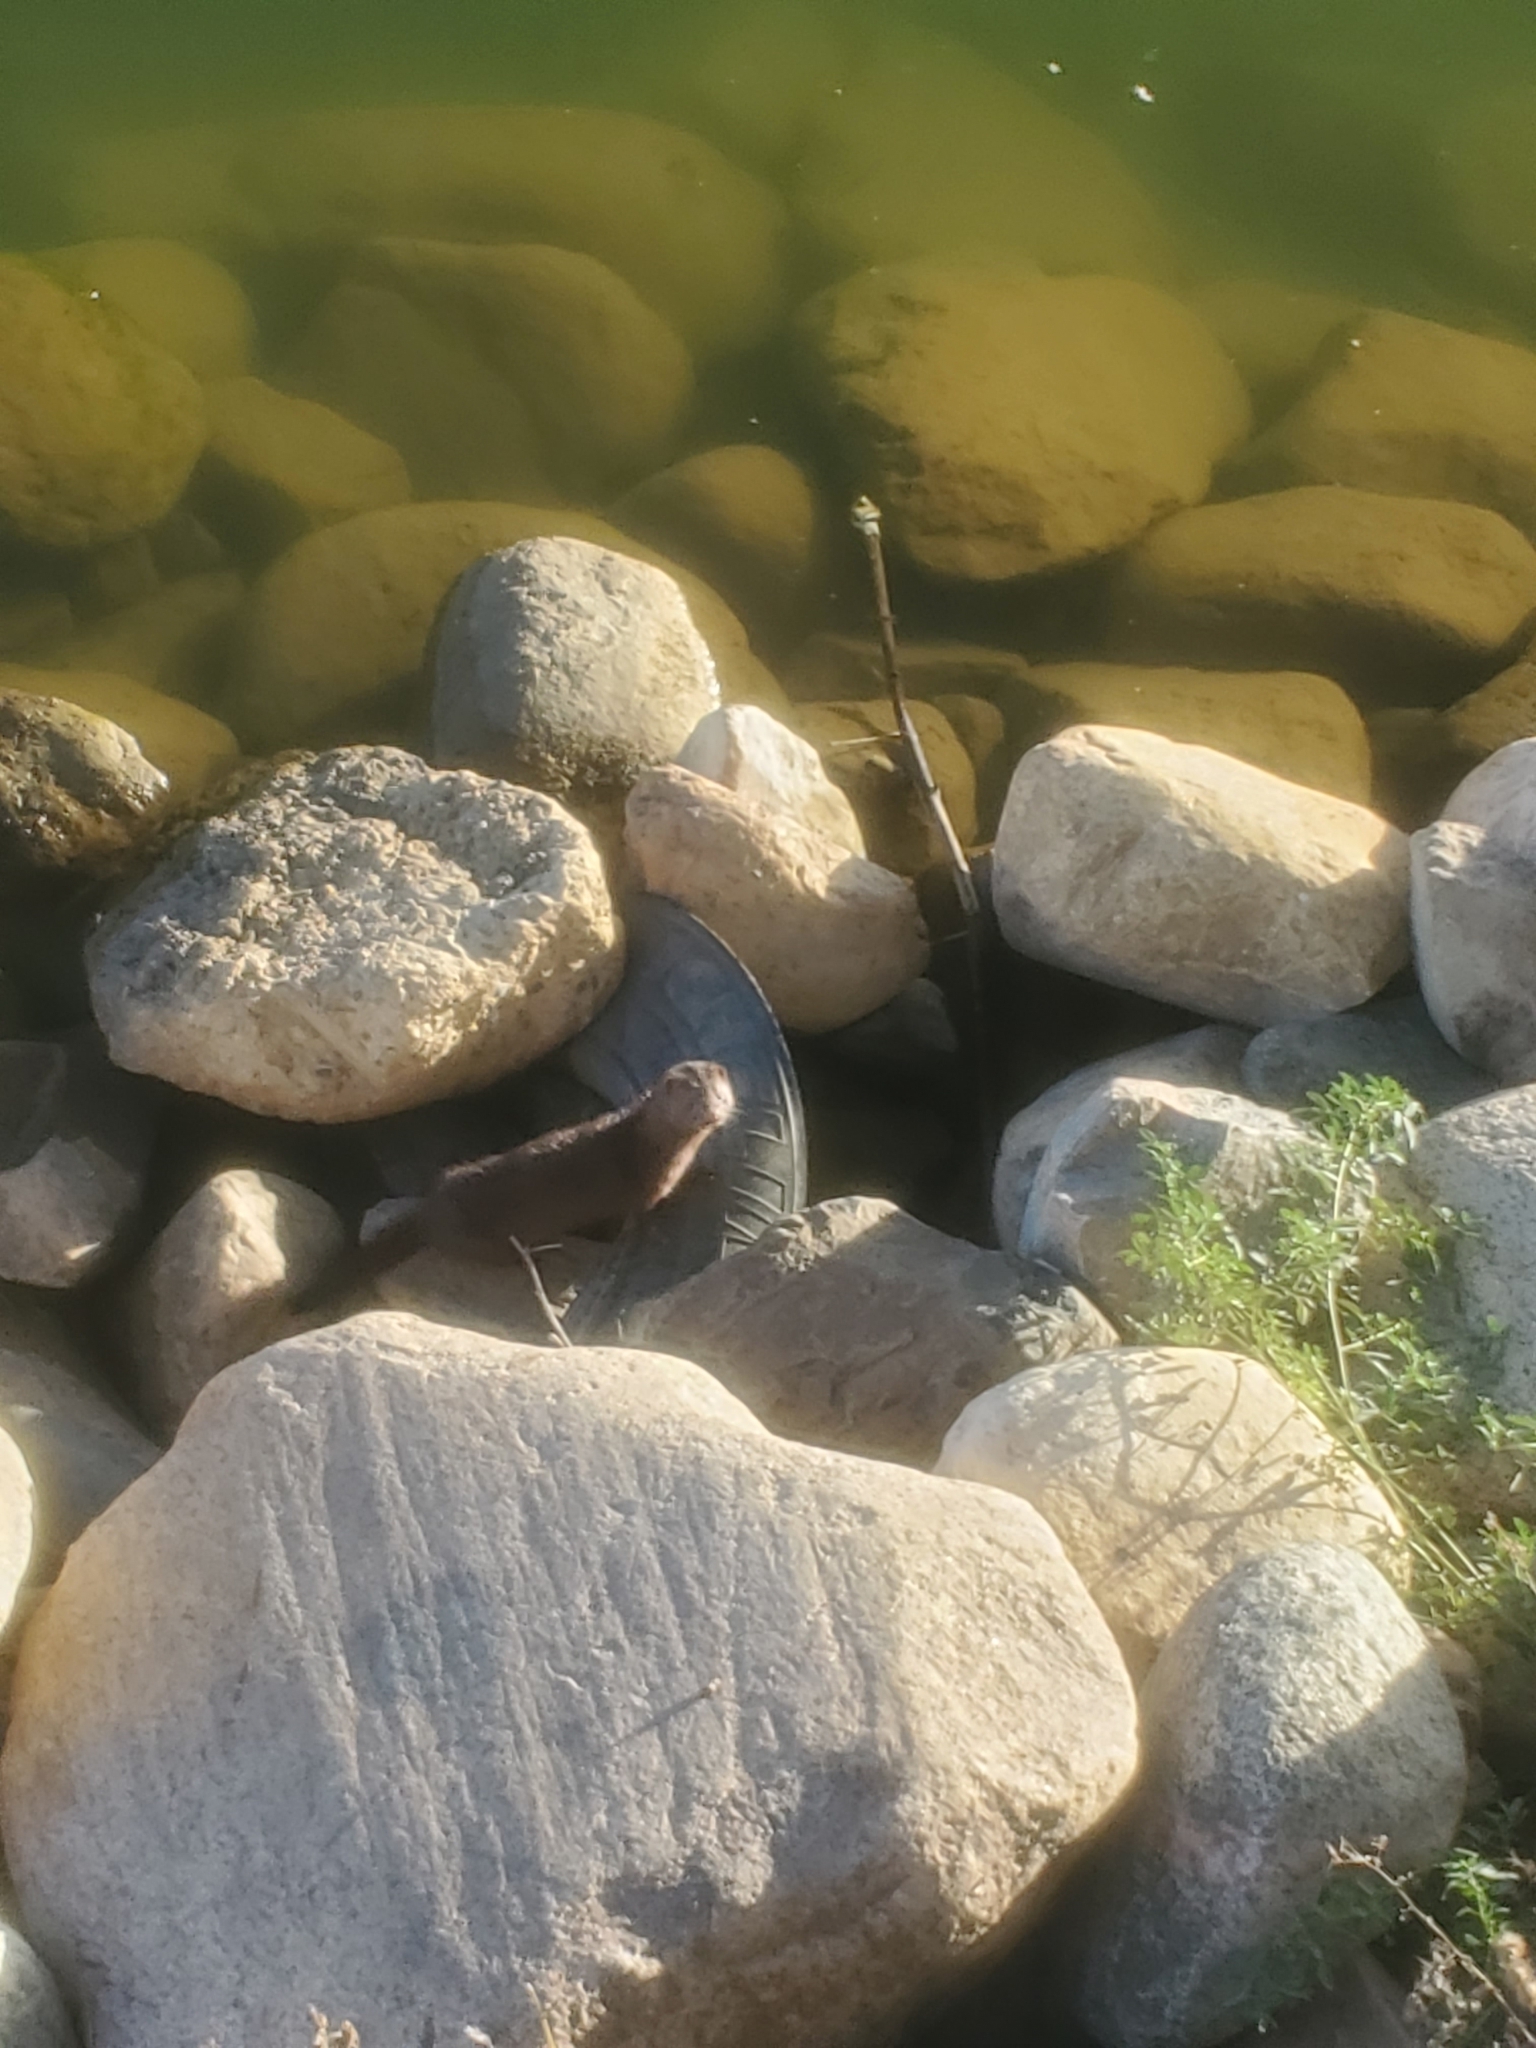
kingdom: Animalia
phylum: Chordata
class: Mammalia
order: Carnivora
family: Mustelidae
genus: Mustela
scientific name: Mustela
